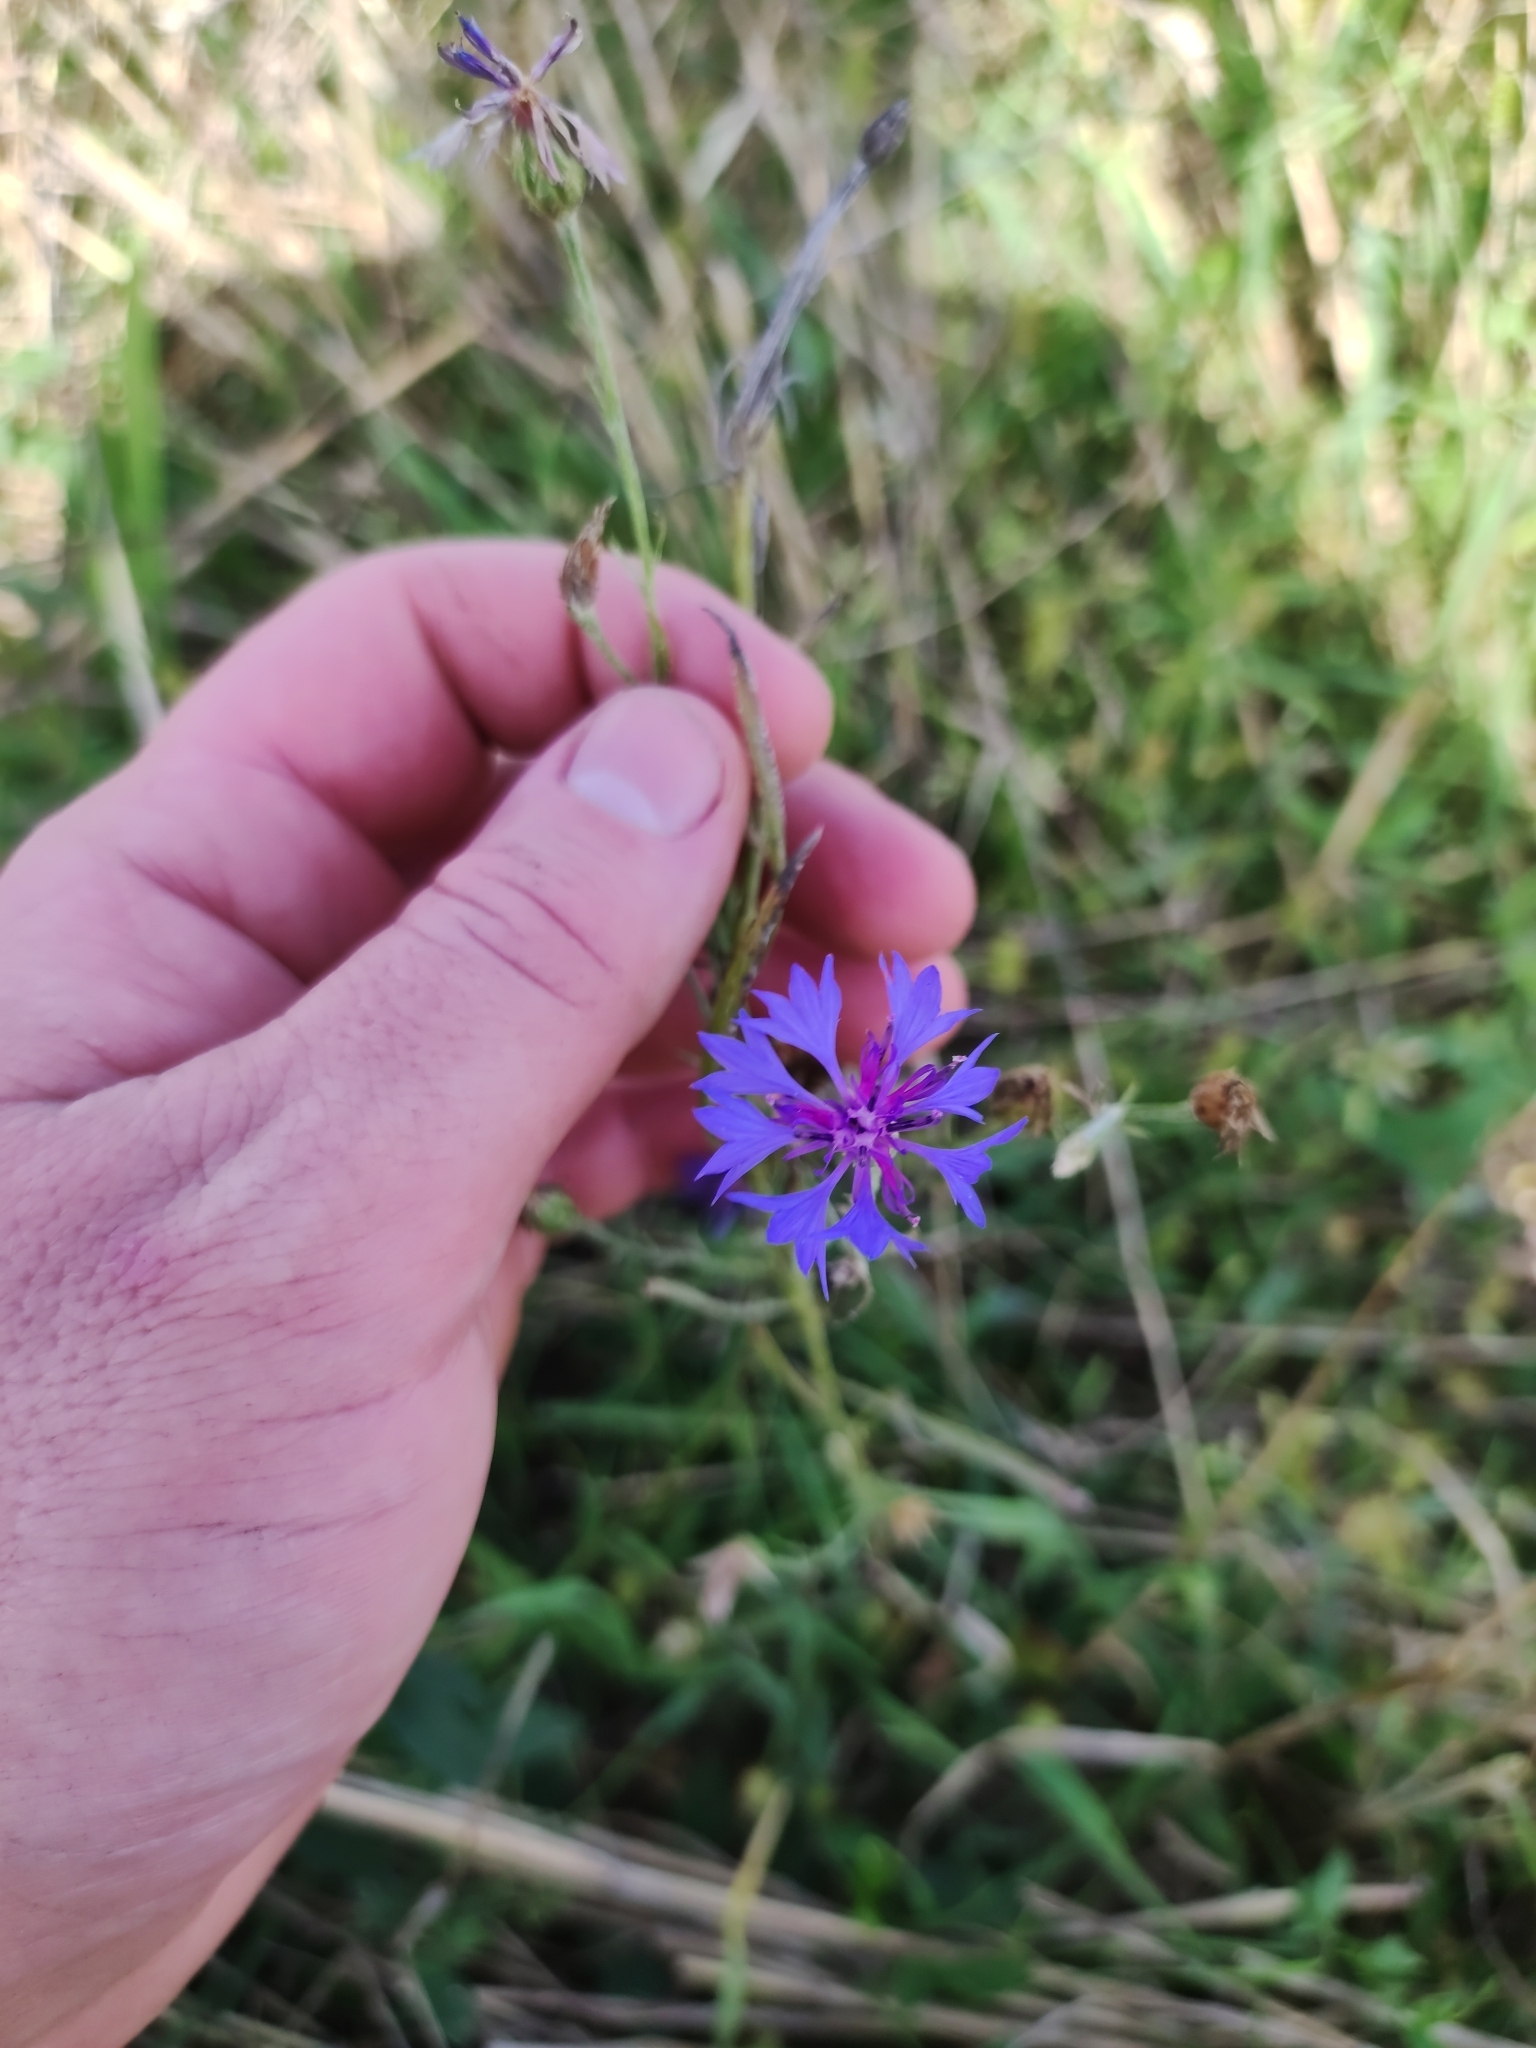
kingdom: Plantae
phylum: Tracheophyta
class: Magnoliopsida
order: Asterales
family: Asteraceae
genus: Centaurea
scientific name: Centaurea cyanus
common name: Cornflower
